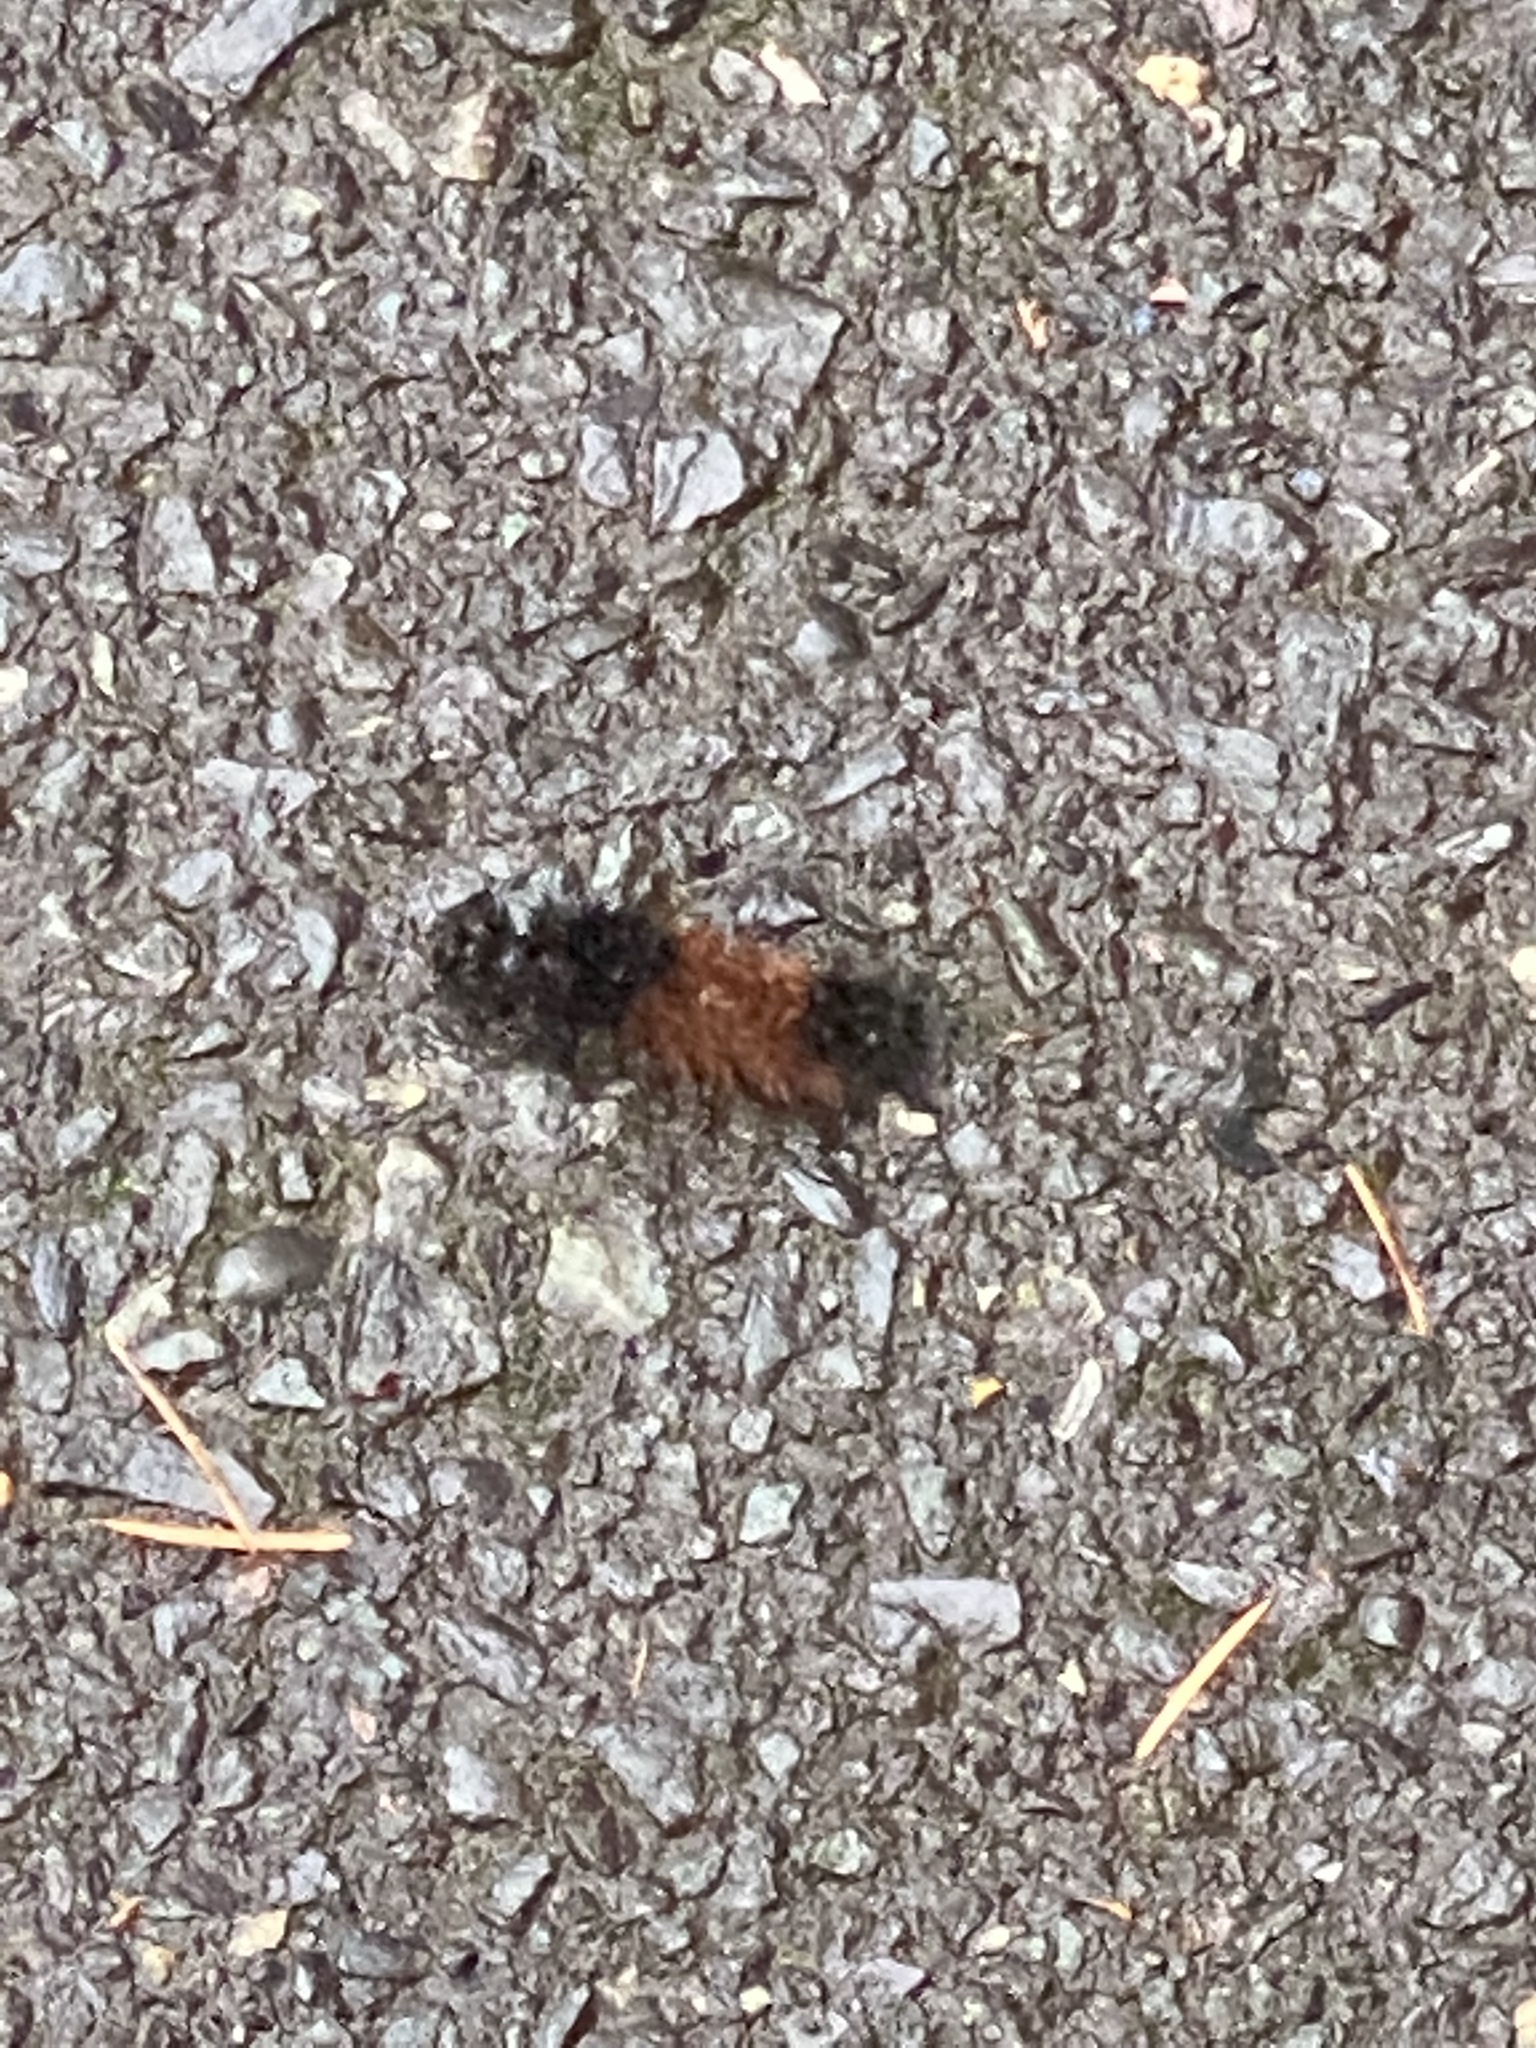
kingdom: Animalia
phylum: Arthropoda
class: Insecta
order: Lepidoptera
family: Erebidae
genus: Pyrrharctia
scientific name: Pyrrharctia isabella
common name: Isabella tiger moth
